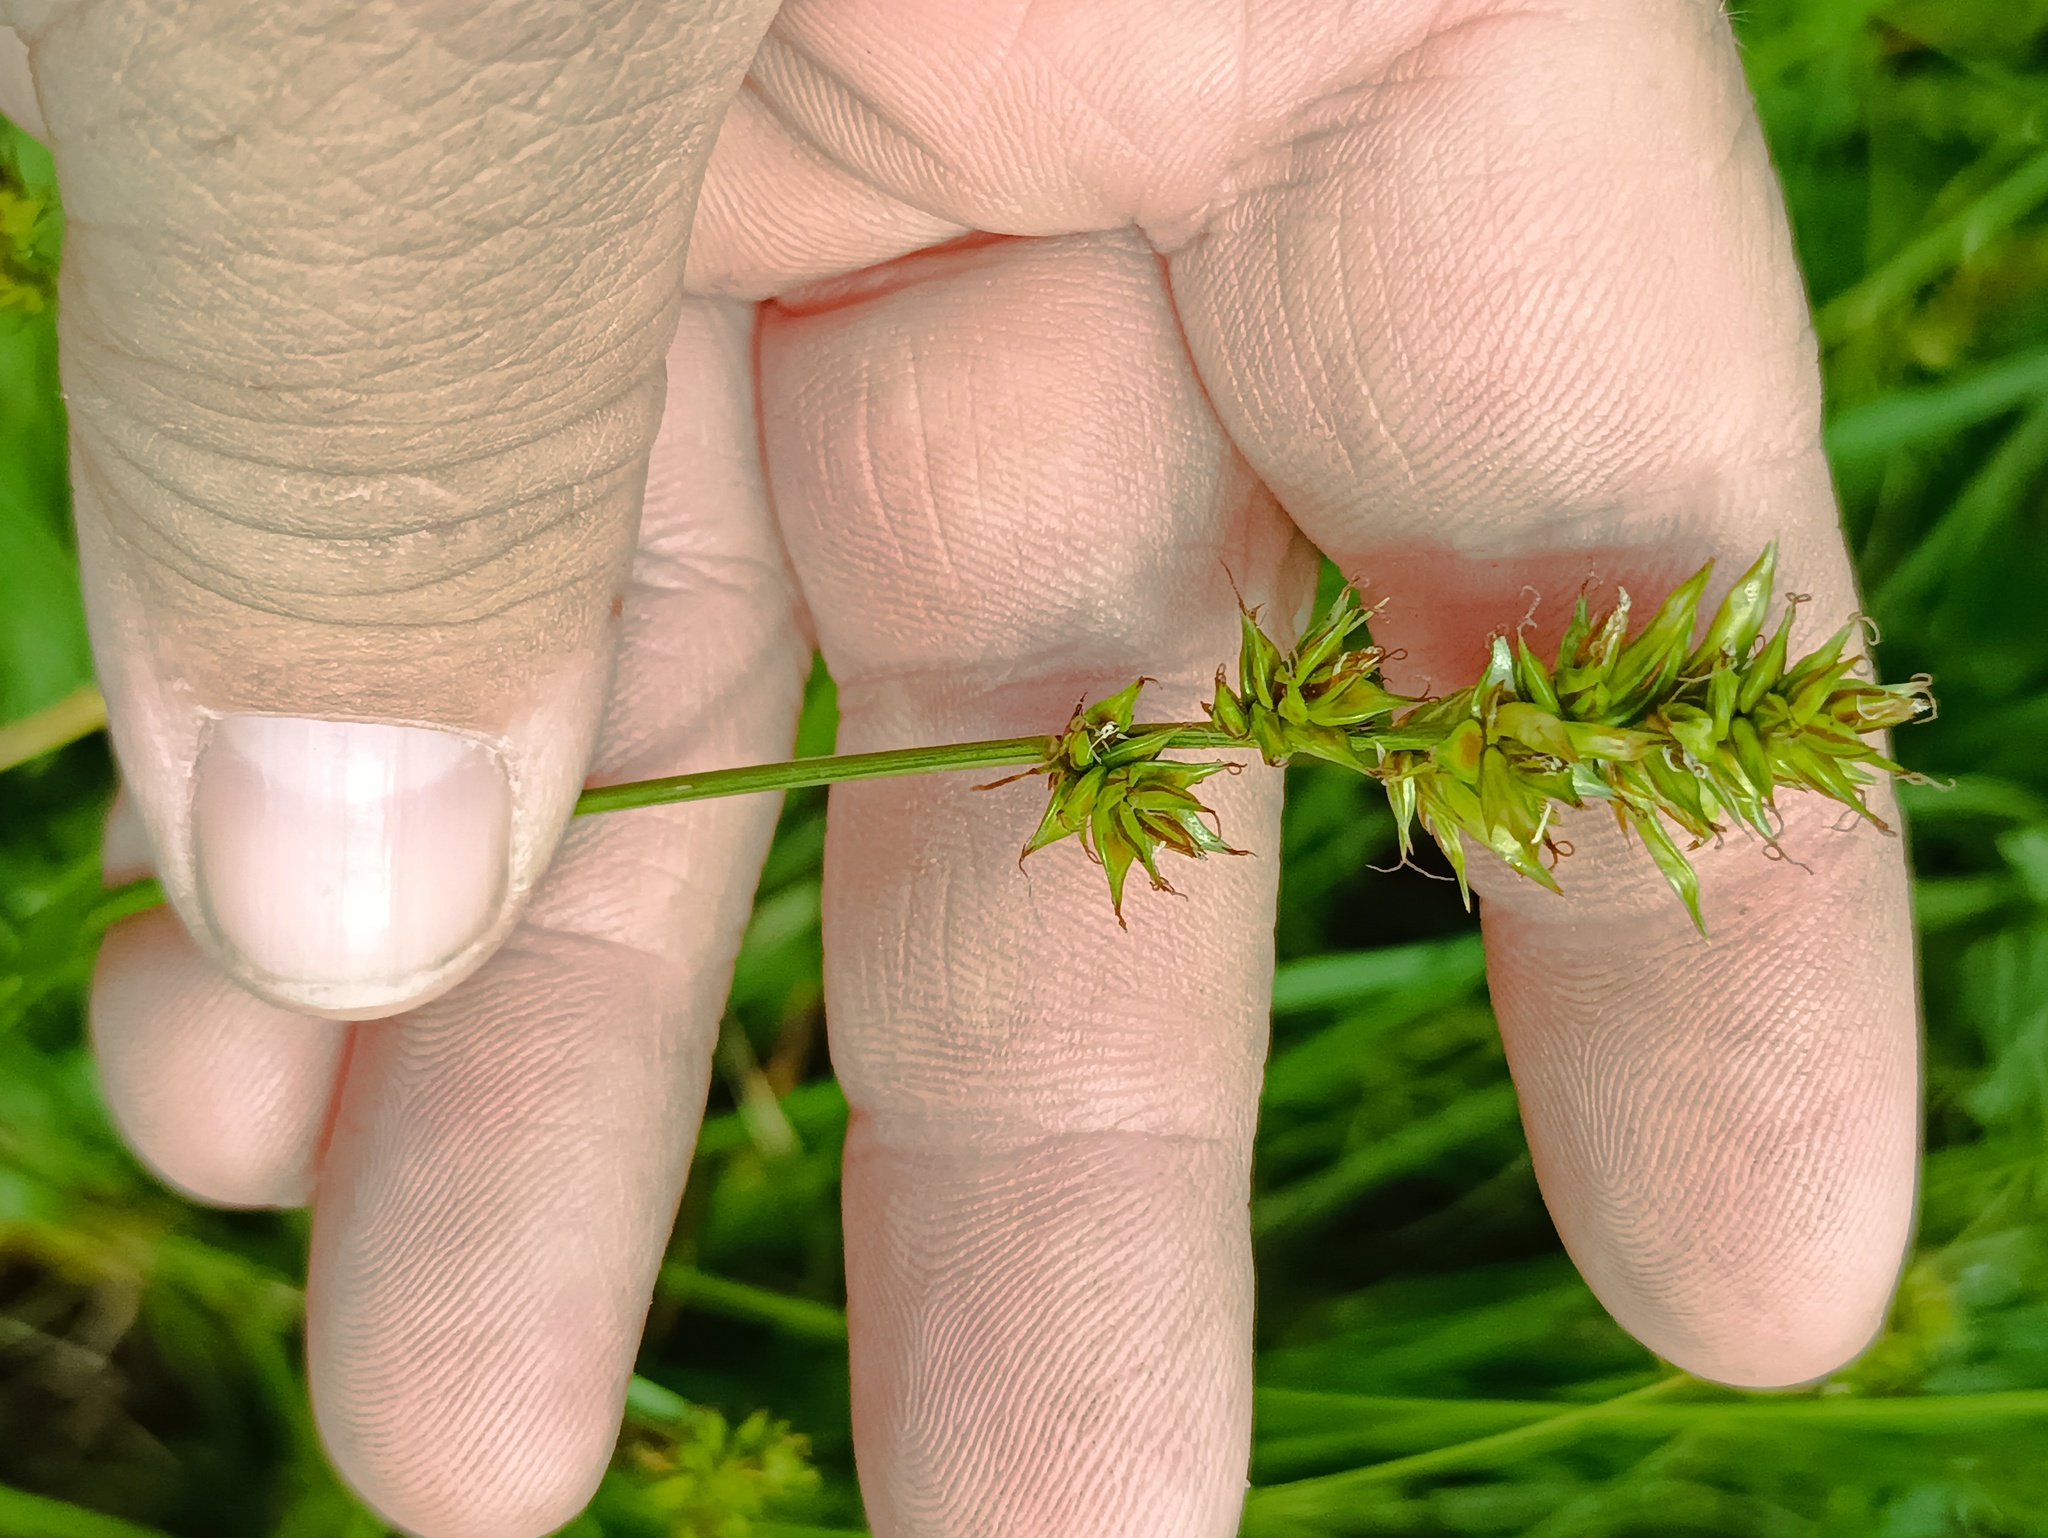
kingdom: Plantae
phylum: Tracheophyta
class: Liliopsida
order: Poales
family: Cyperaceae
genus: Carex
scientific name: Carex spicata
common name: Spiked sedge
